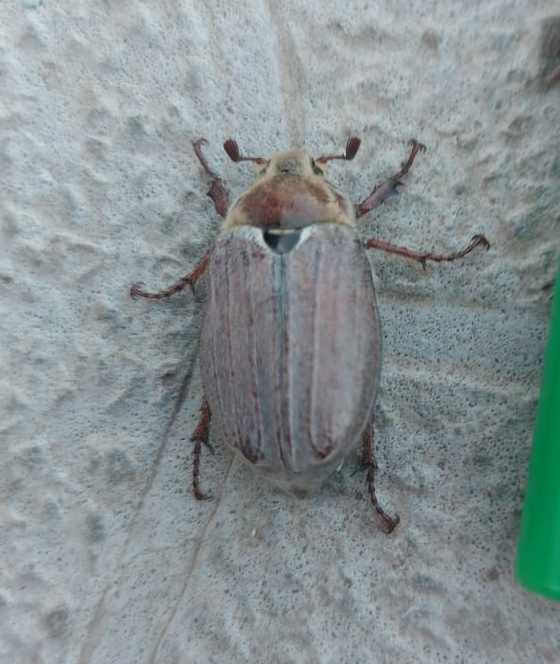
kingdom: Animalia
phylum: Arthropoda
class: Insecta
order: Coleoptera
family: Scarabaeidae
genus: Melolontha
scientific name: Melolontha hippocastani
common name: Chestnut cockchafer
